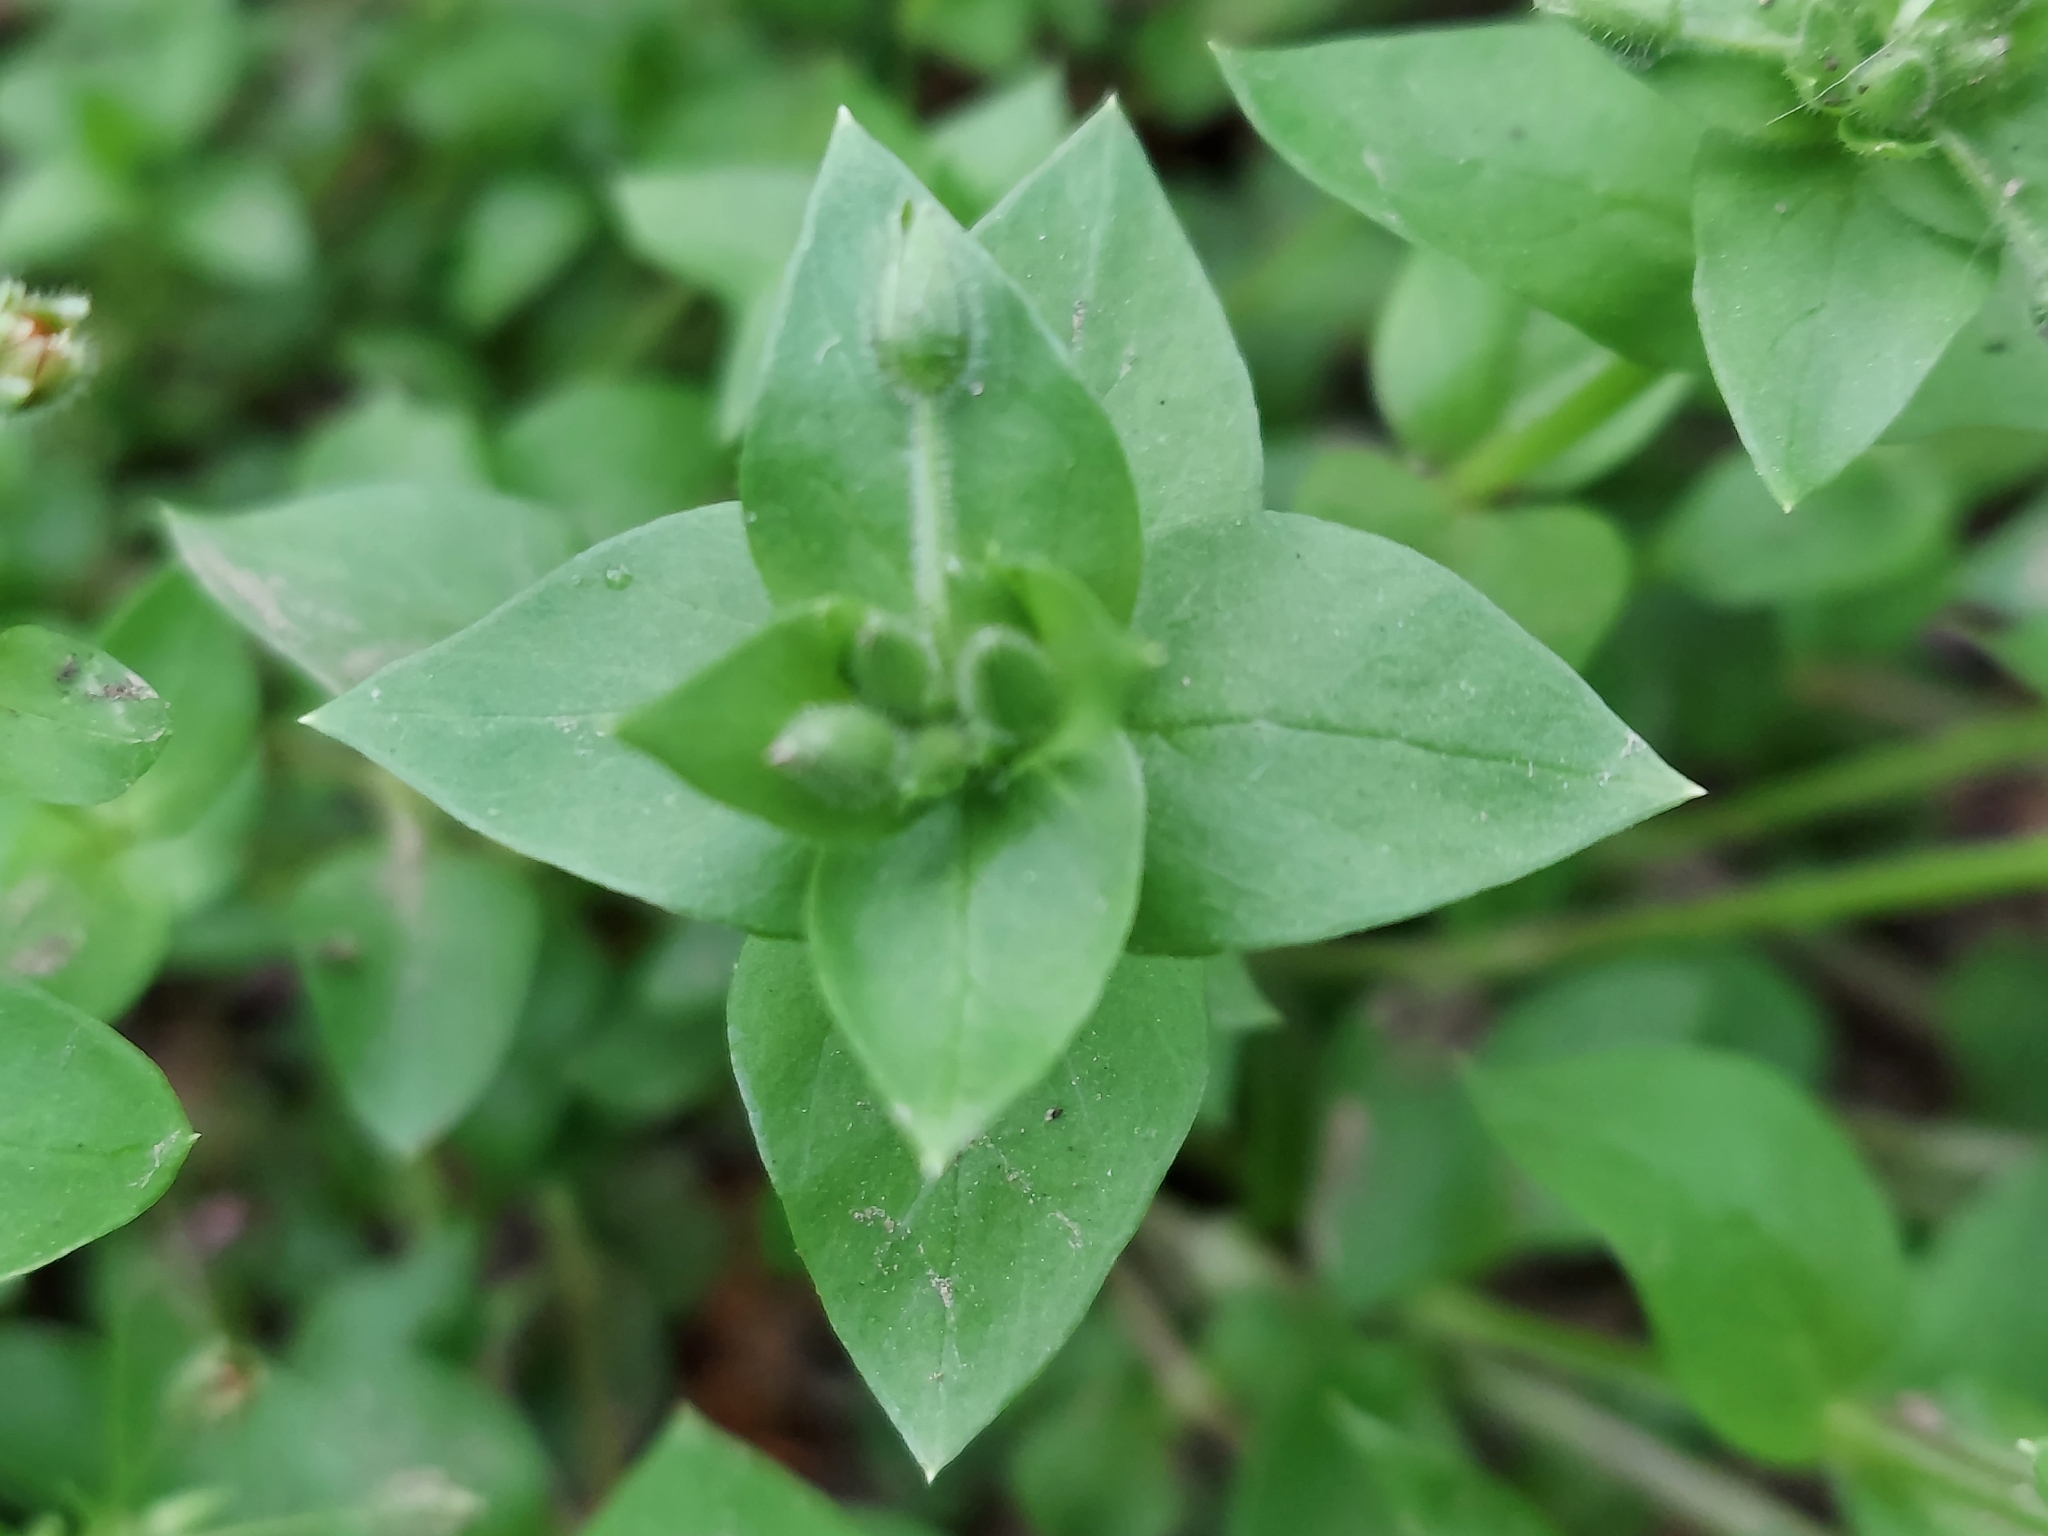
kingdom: Plantae
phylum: Tracheophyta
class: Magnoliopsida
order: Caryophyllales
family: Caryophyllaceae
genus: Stellaria
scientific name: Stellaria media
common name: Common chickweed
